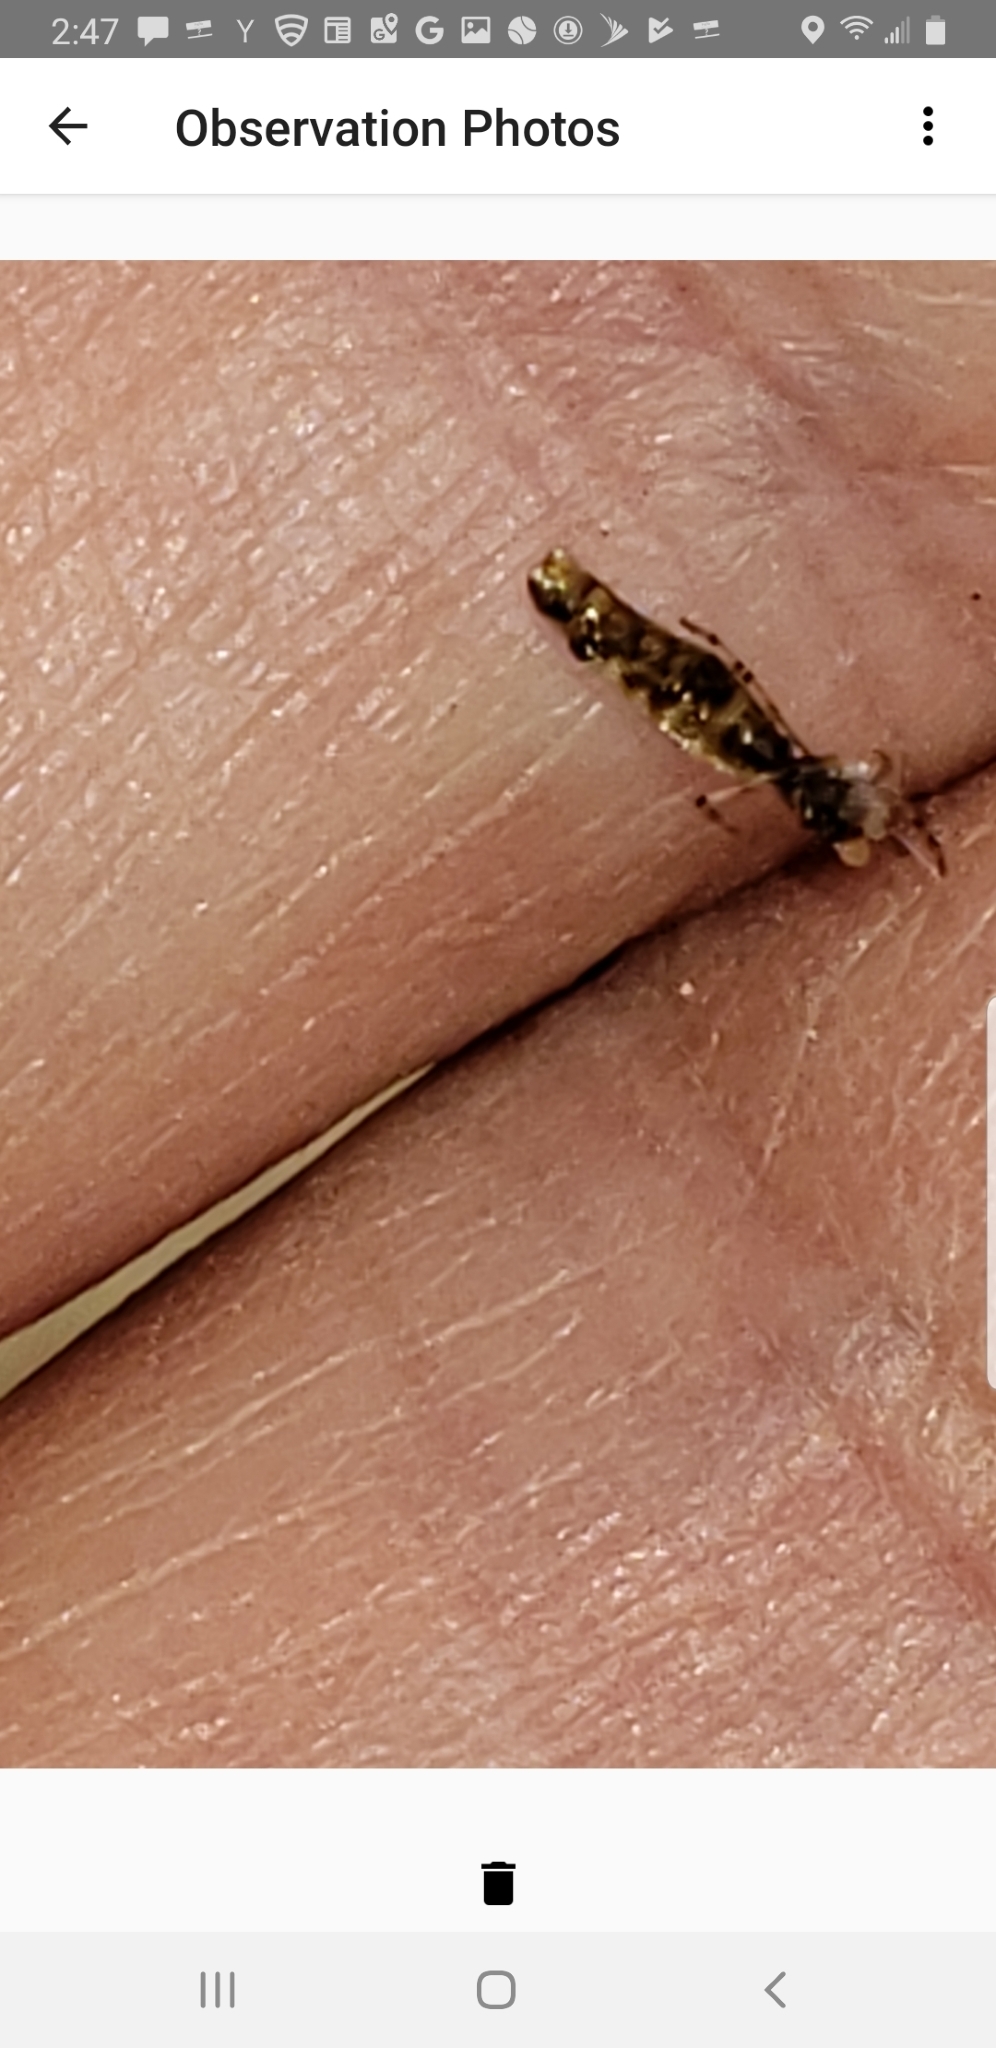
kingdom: Animalia
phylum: Arthropoda
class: Arachnida
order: Araneae
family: Araneidae
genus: Micrathena
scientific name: Micrathena gracilis
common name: Orb weavers
